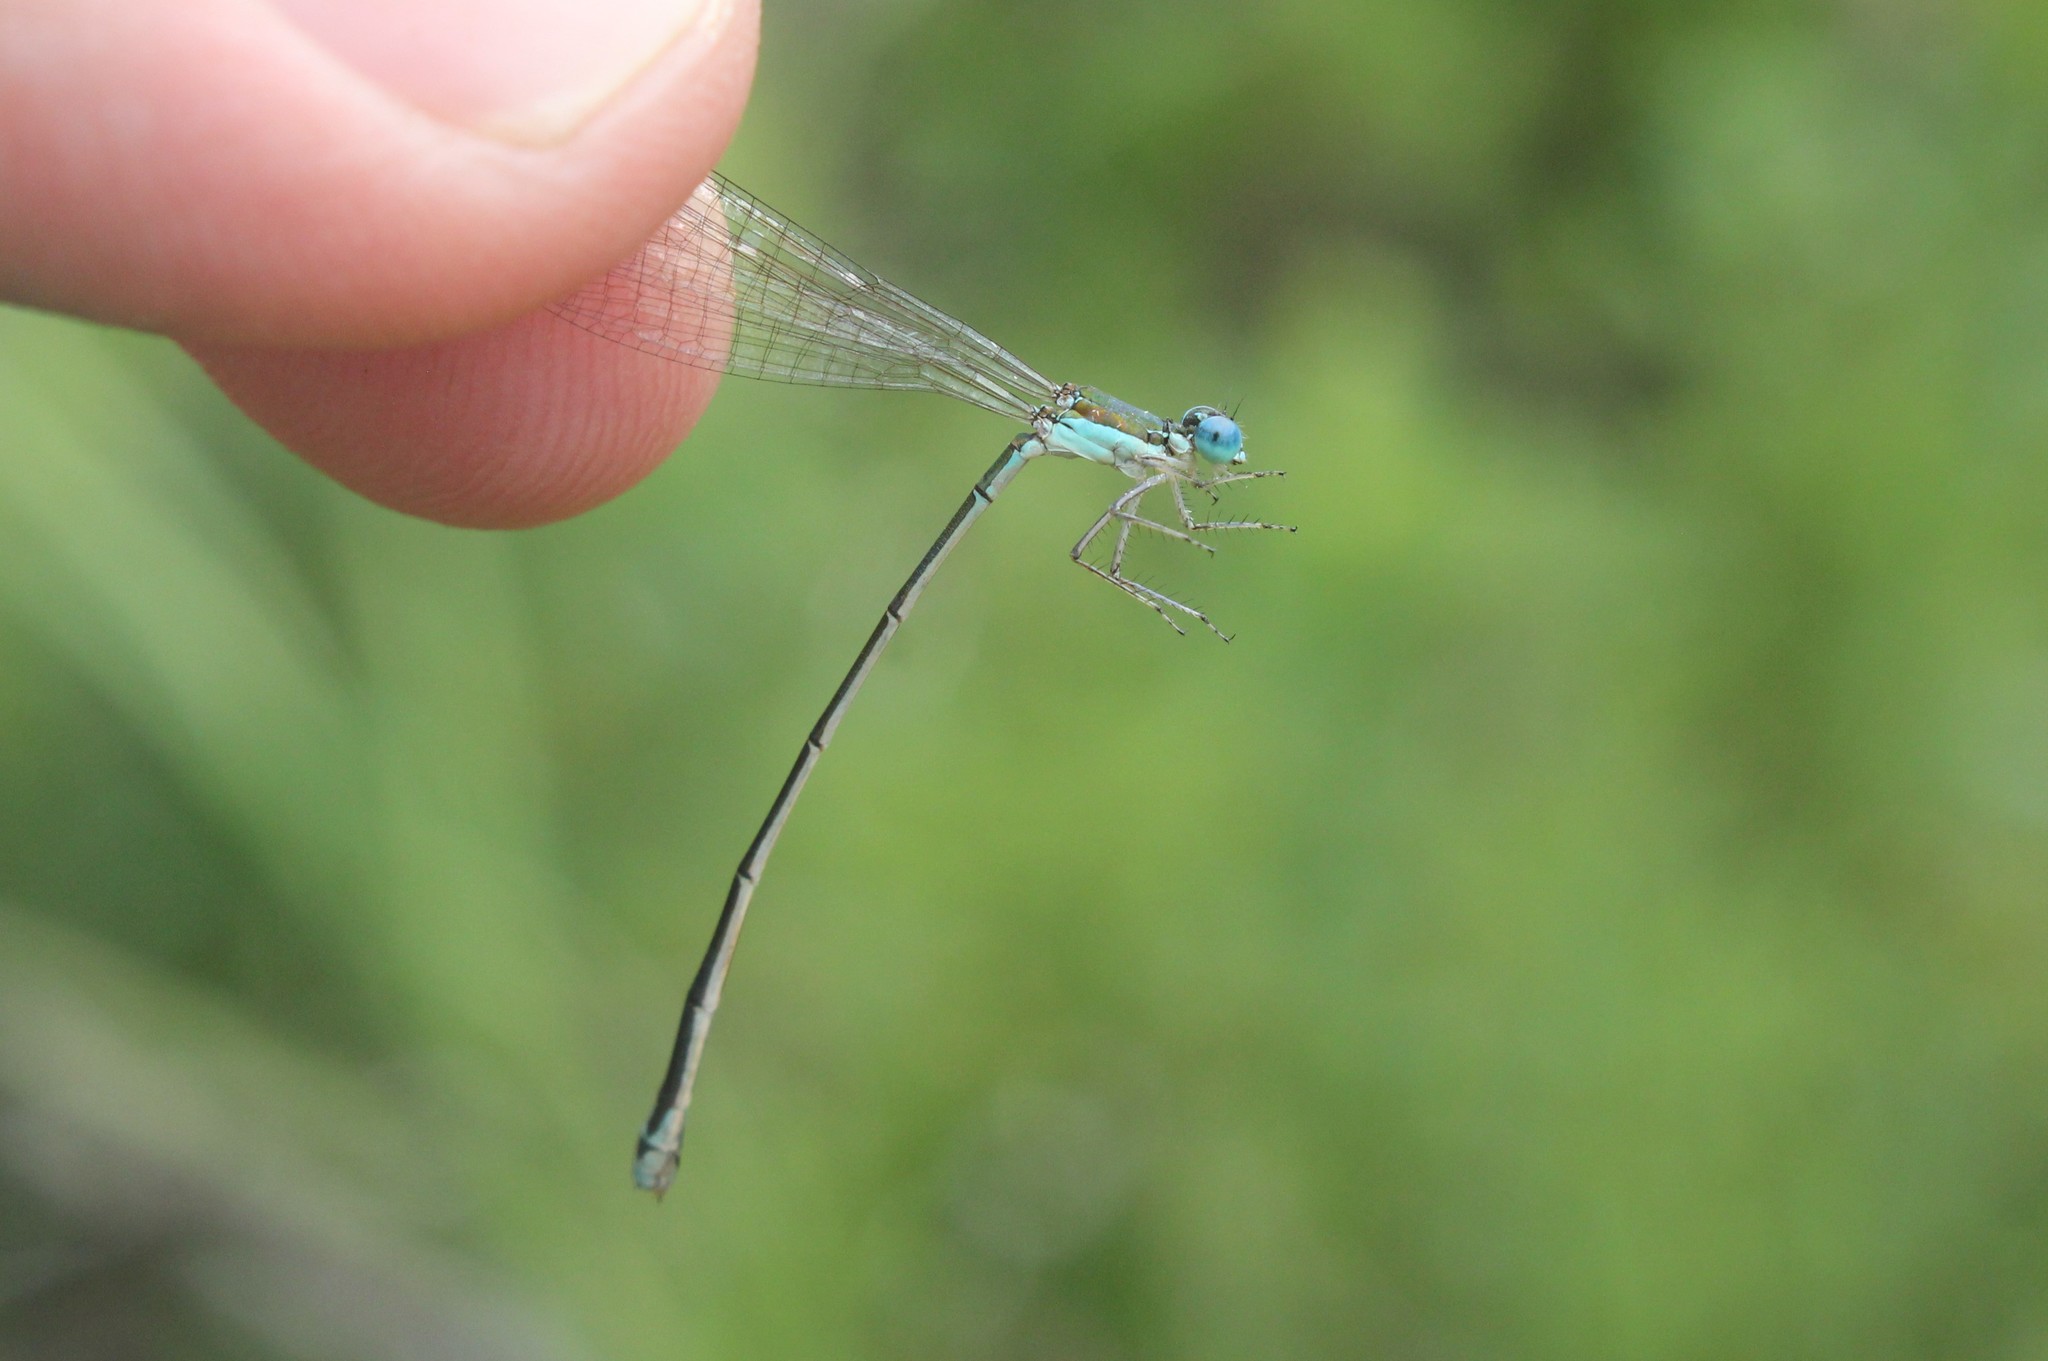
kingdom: Animalia
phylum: Arthropoda
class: Insecta
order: Odonata
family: Coenagrionidae
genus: Nehalennia
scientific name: Nehalennia irene
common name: Sedge sprite
